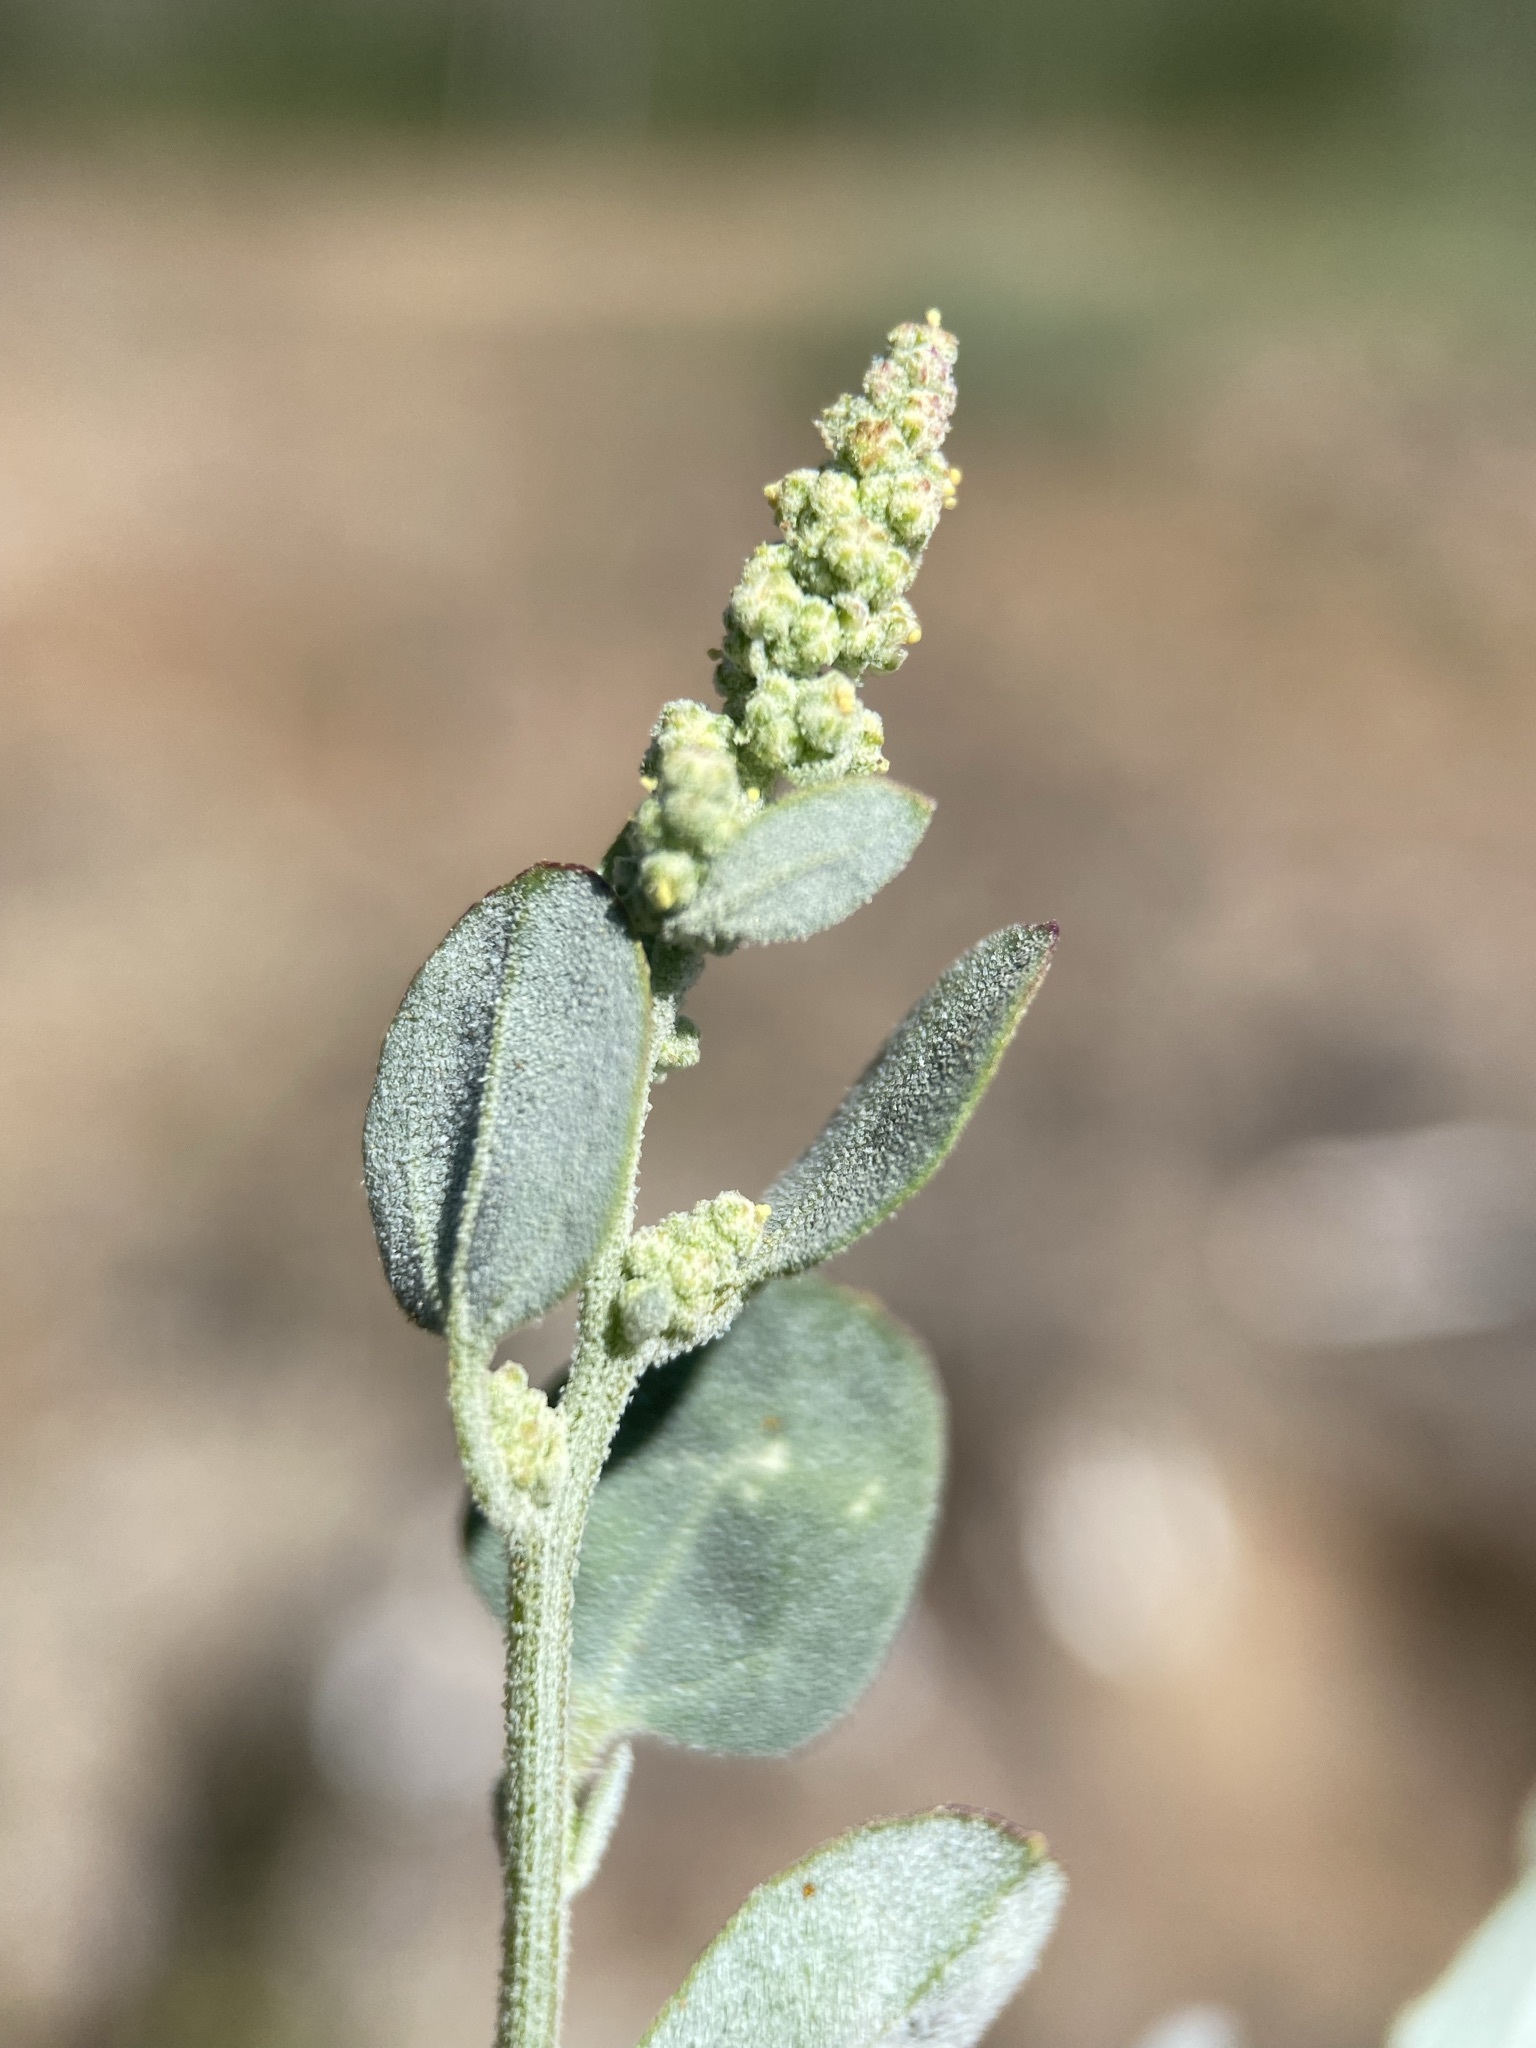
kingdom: Plantae
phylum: Tracheophyta
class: Magnoliopsida
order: Caryophyllales
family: Amaranthaceae
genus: Chenopodium
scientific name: Chenopodium atrovirens
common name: Dark goosefoot
